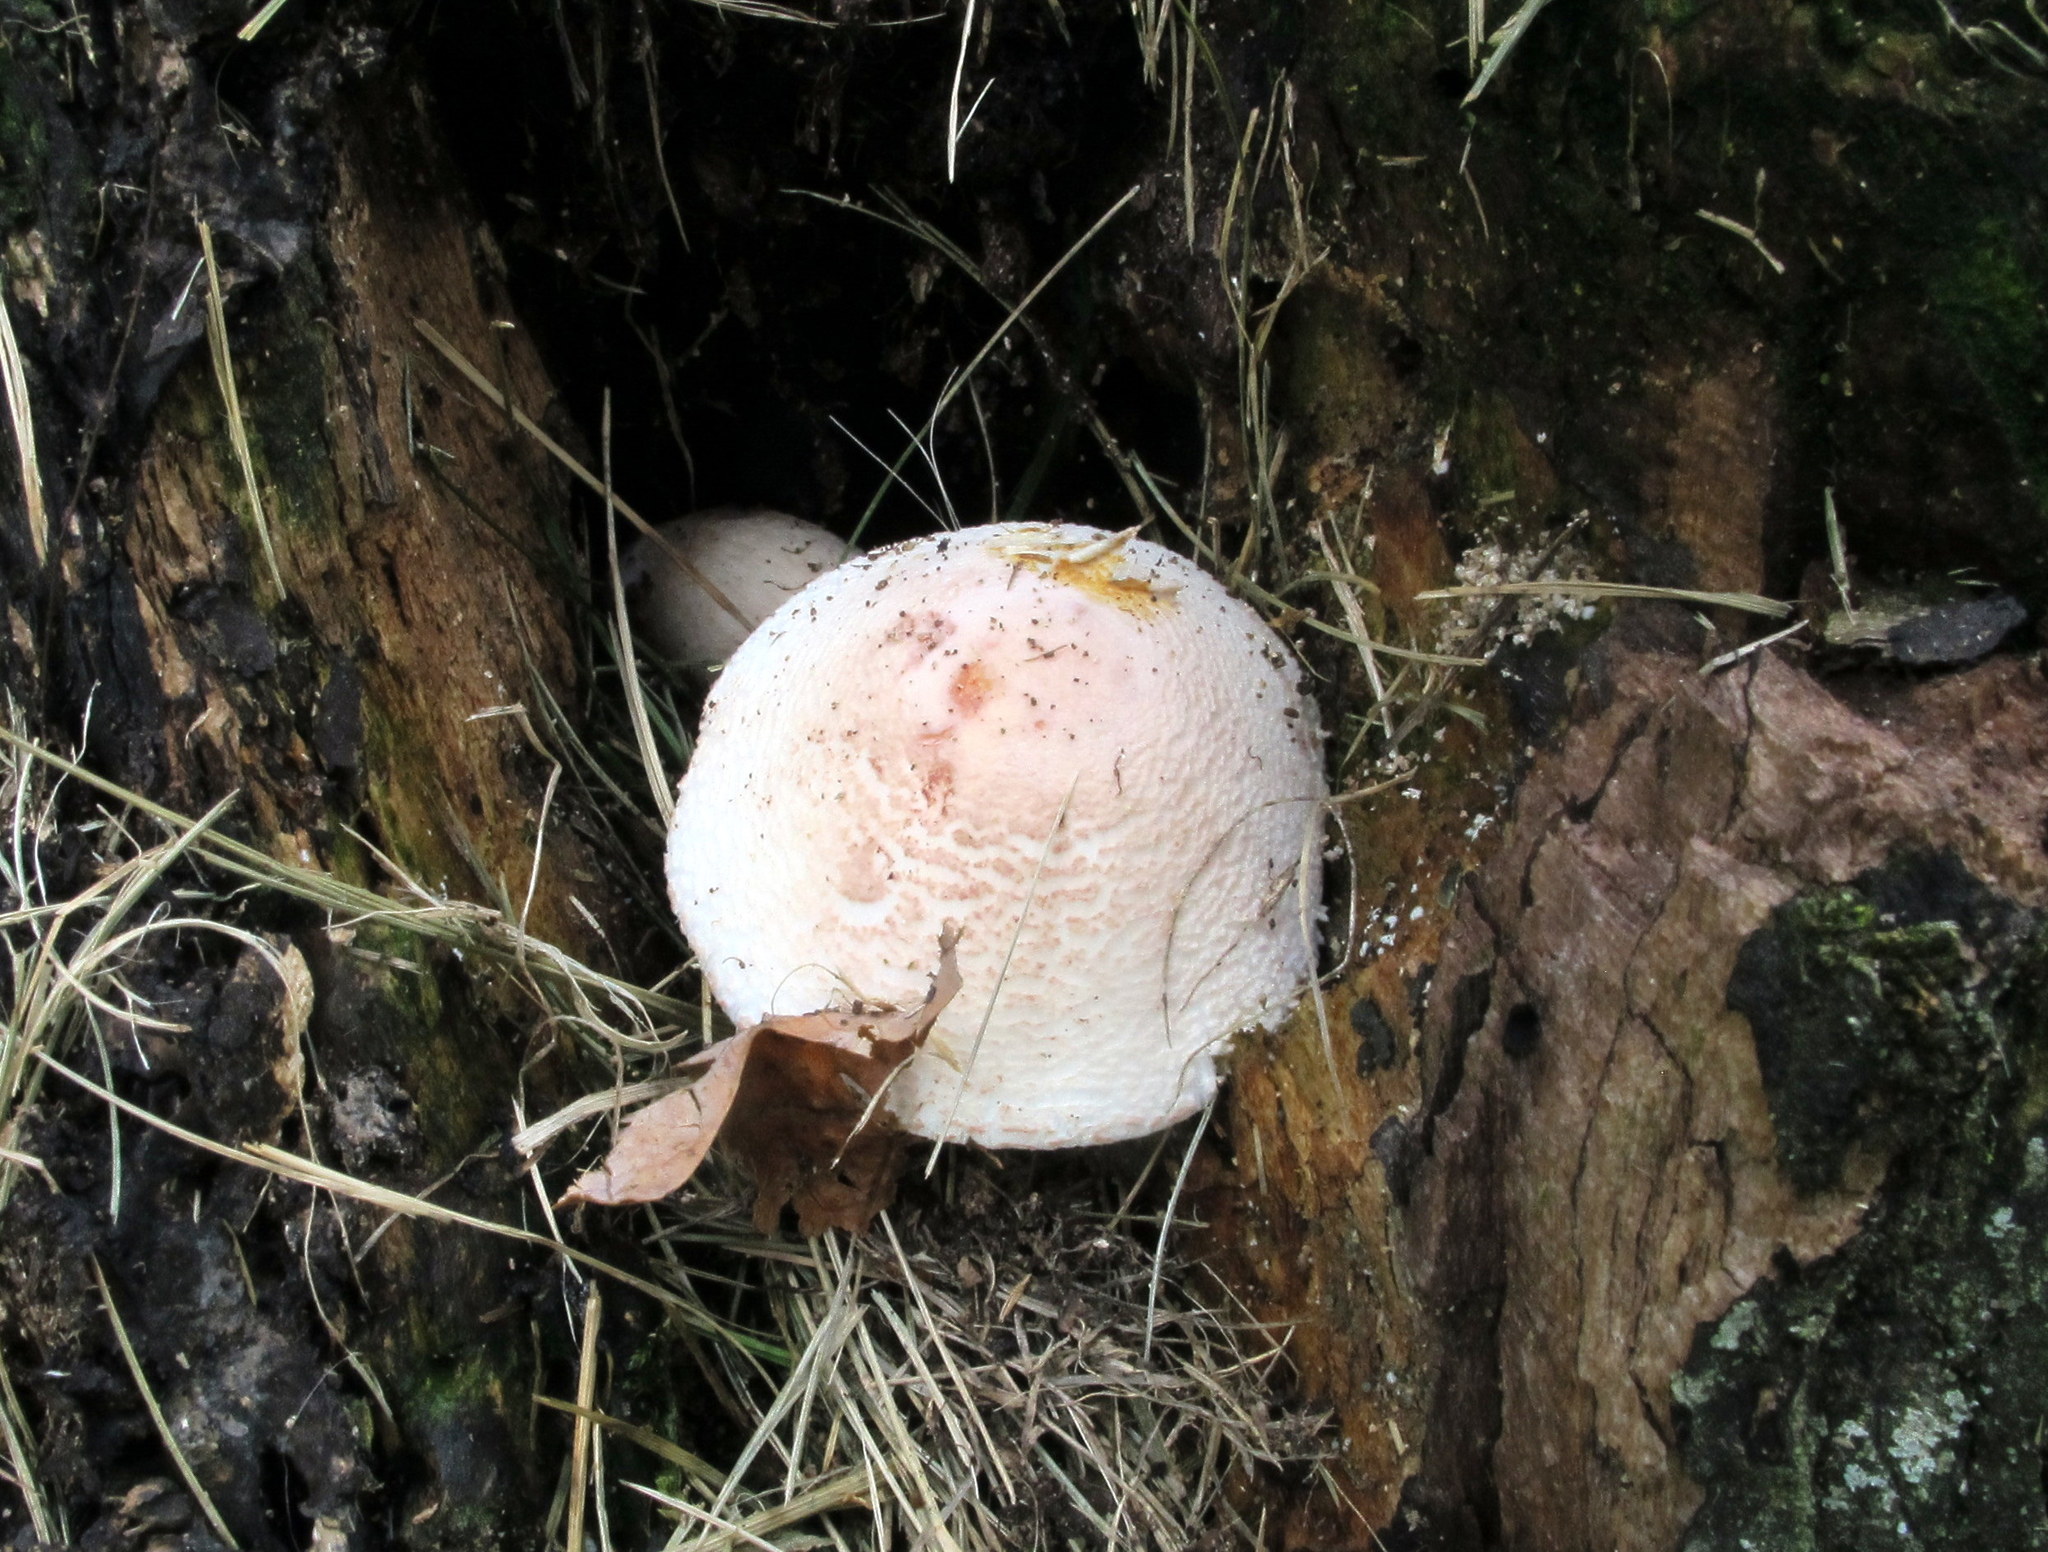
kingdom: Fungi
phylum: Basidiomycota
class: Agaricomycetes
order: Agaricales
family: Agaricaceae
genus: Leucoagaricus
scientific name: Leucoagaricus americanus
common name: Reddening lepiota
